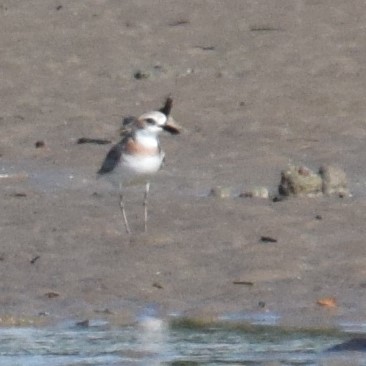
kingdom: Animalia
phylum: Chordata
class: Aves
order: Charadriiformes
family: Charadriidae
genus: Charadrius
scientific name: Charadrius leschenaultii
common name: Greater sand plover
